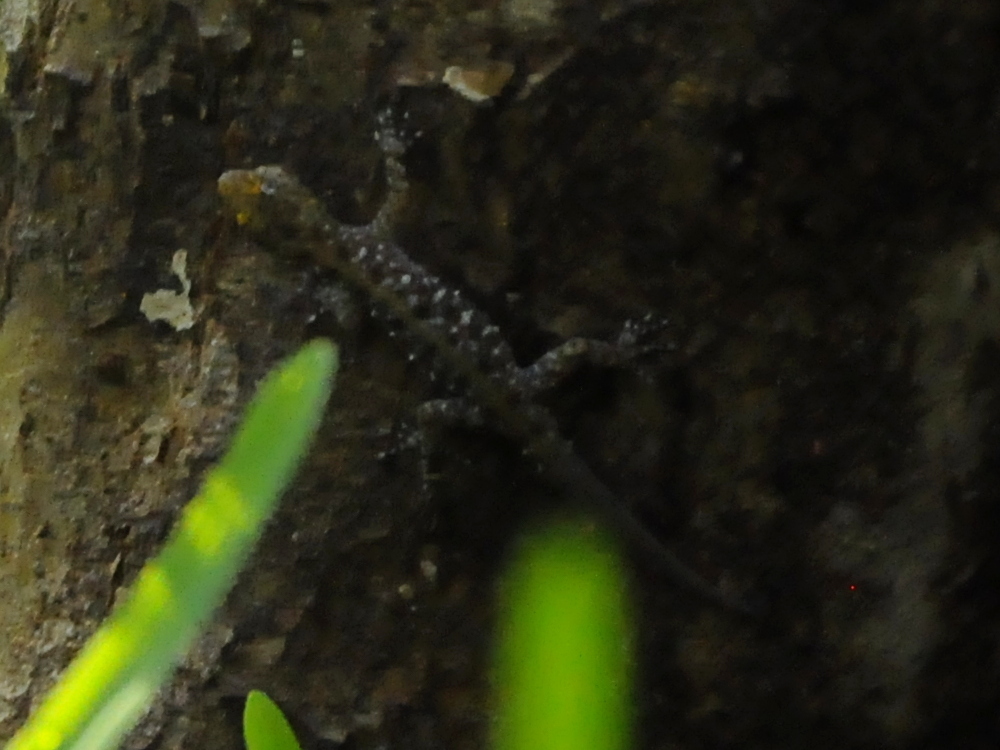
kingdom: Animalia
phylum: Chordata
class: Squamata
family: Gekkonidae
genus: Cnemaspis
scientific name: Cnemaspis mysoriensis
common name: Mysore day gecko
